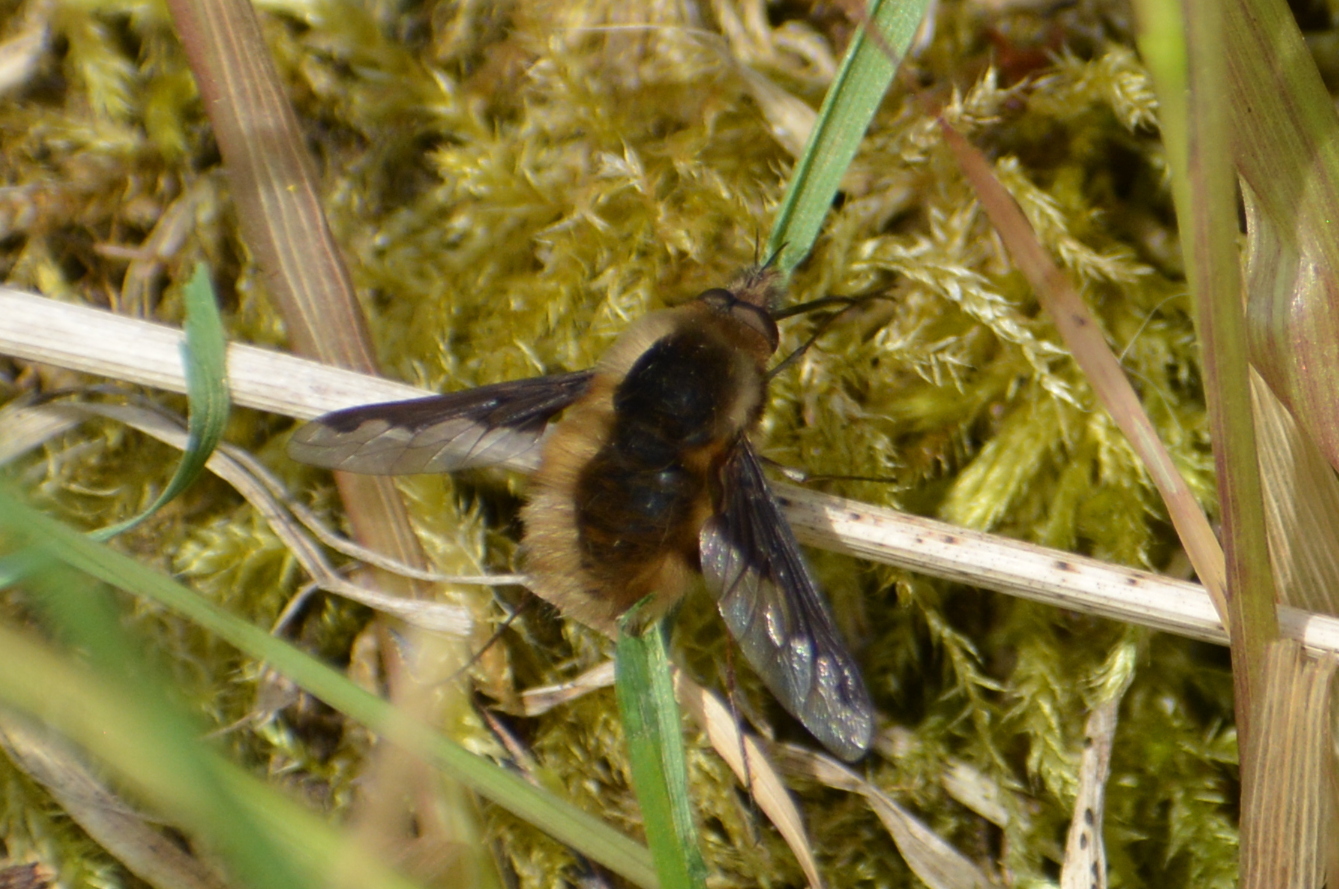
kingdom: Animalia
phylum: Arthropoda
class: Insecta
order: Diptera
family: Bombyliidae
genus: Bombylius
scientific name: Bombylius major
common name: Bee fly
